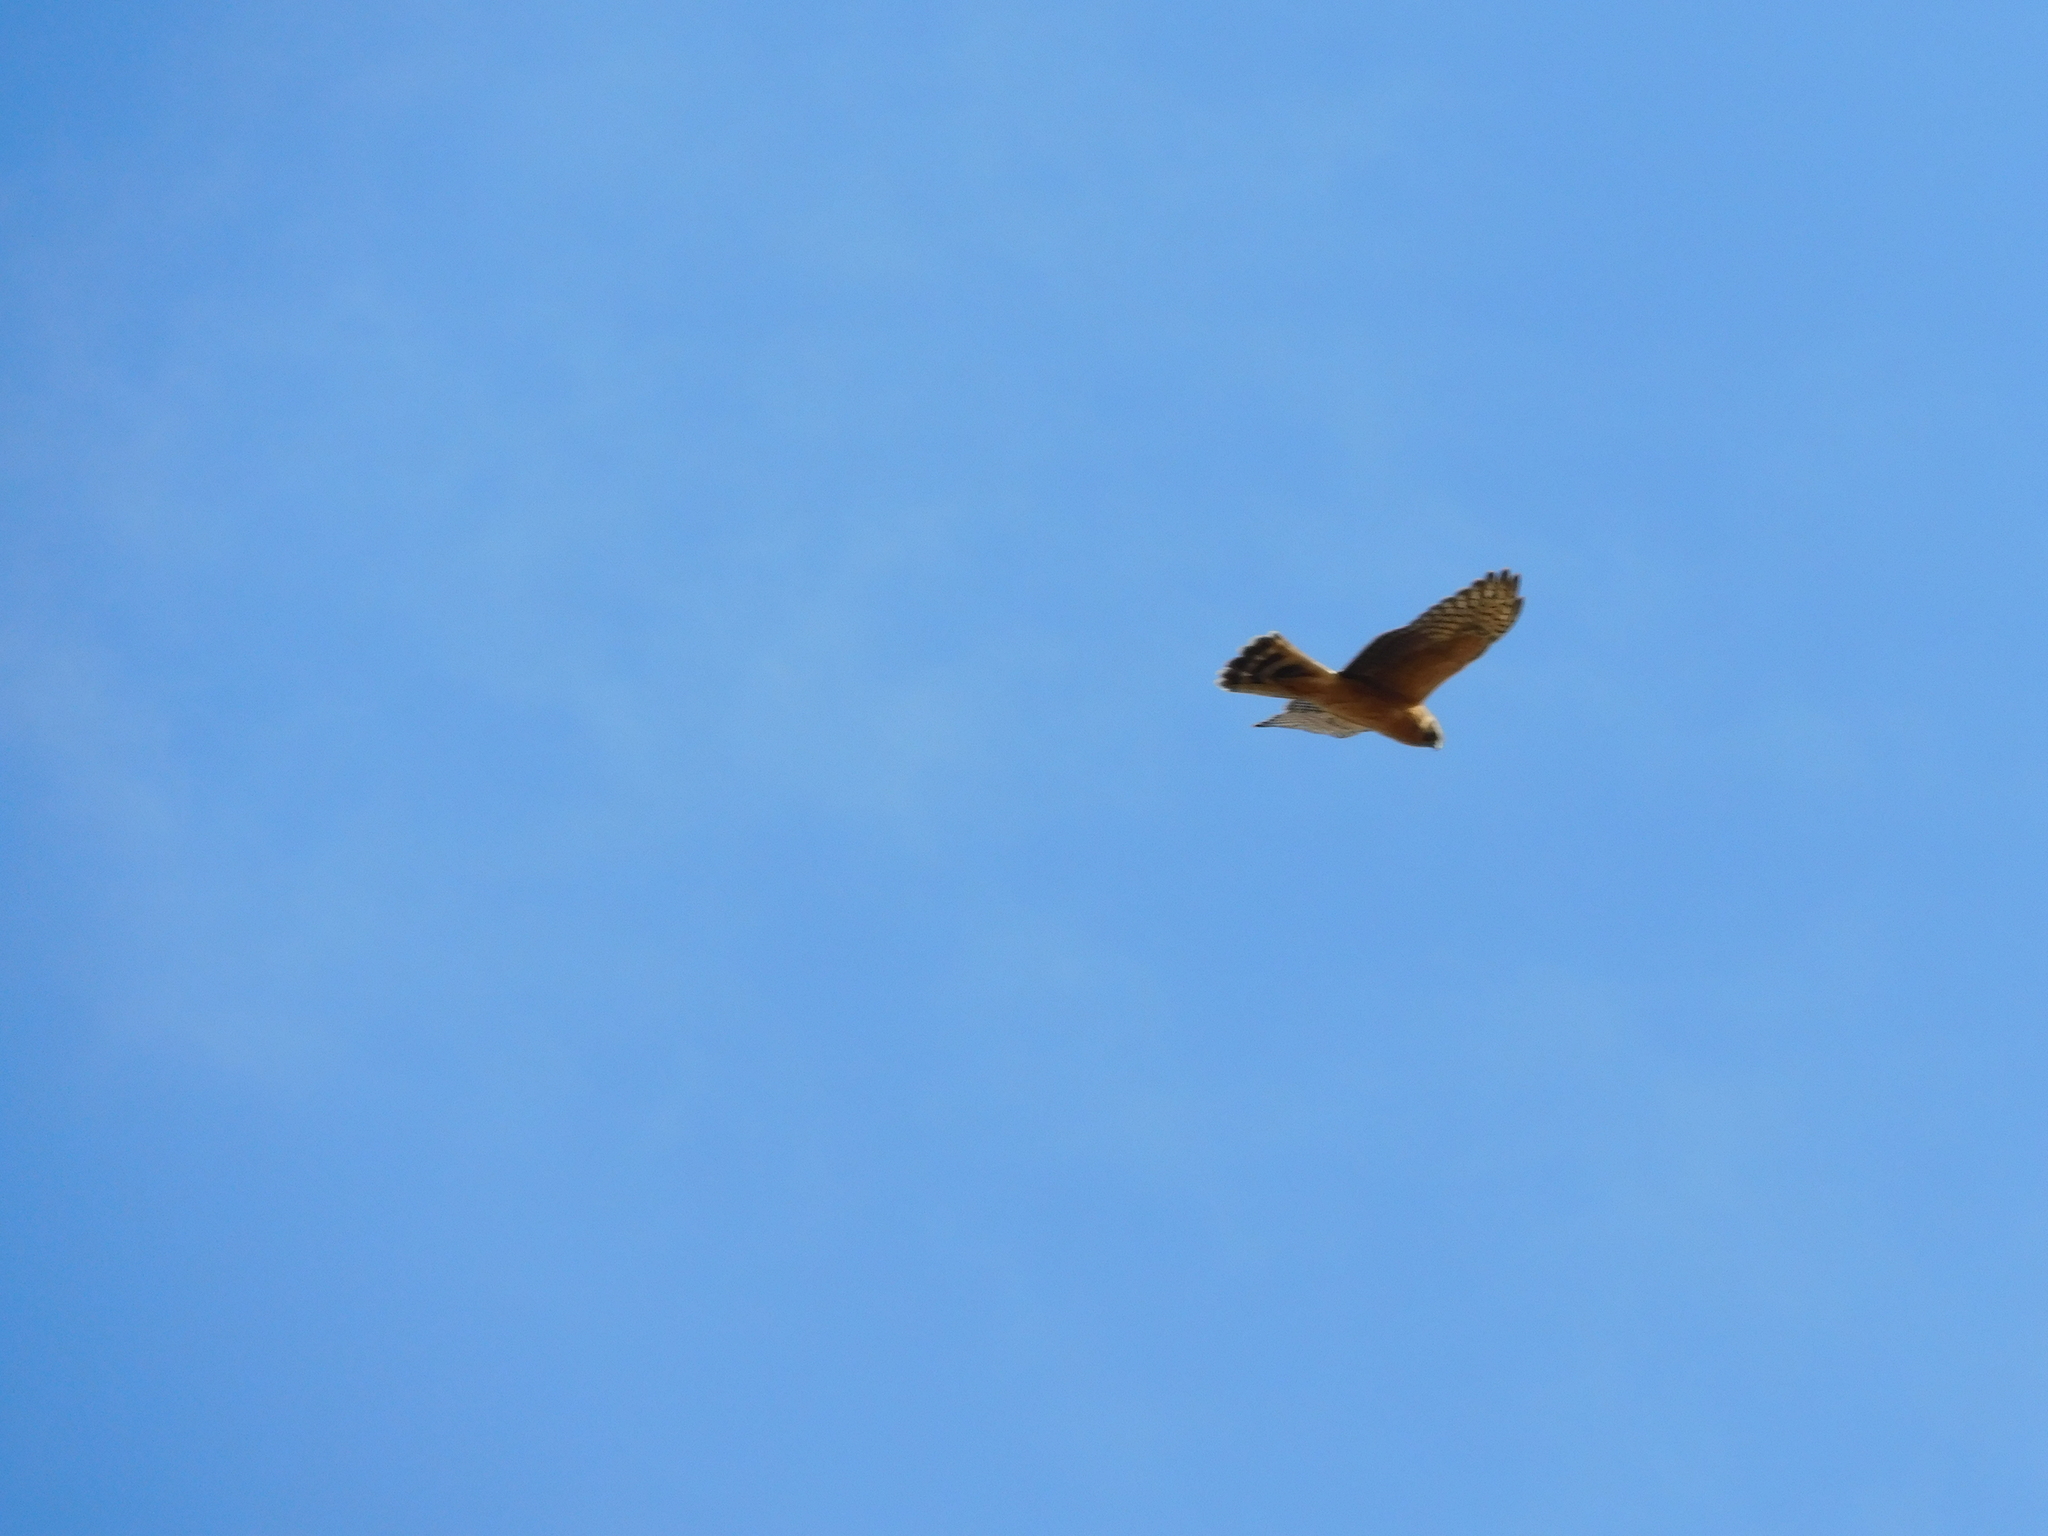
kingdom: Animalia
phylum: Chordata
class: Aves
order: Accipitriformes
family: Accipitridae
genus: Circus
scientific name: Circus macrourus
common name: Pallid harrier
